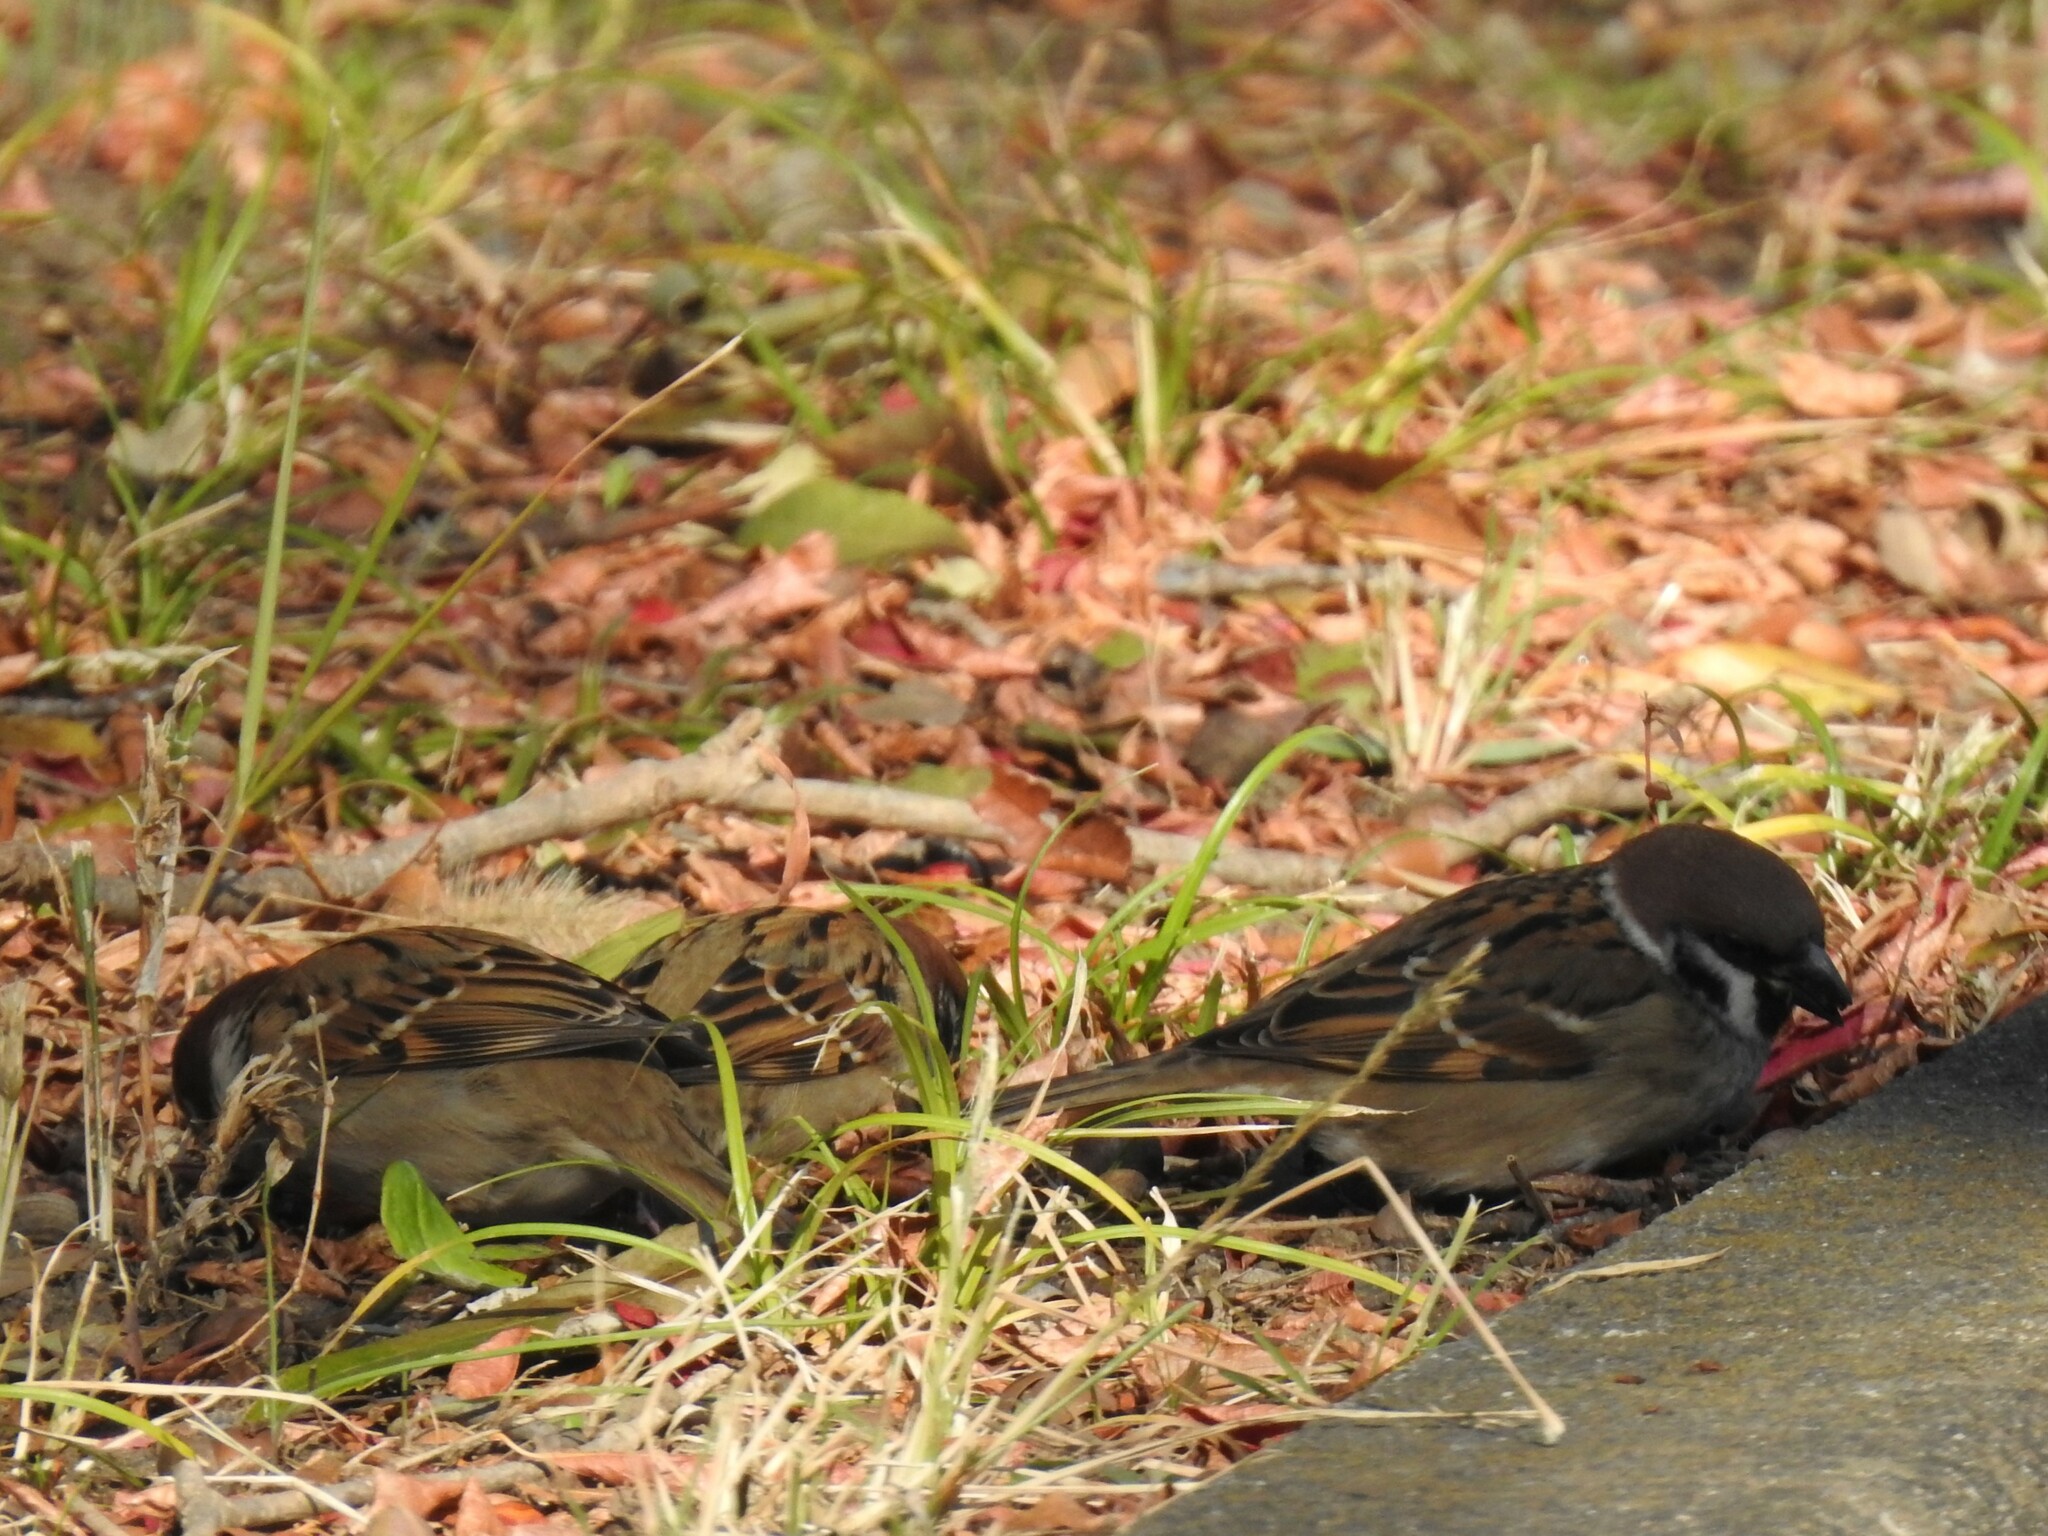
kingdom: Animalia
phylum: Chordata
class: Aves
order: Passeriformes
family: Passeridae
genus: Passer
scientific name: Passer montanus
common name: Eurasian tree sparrow
